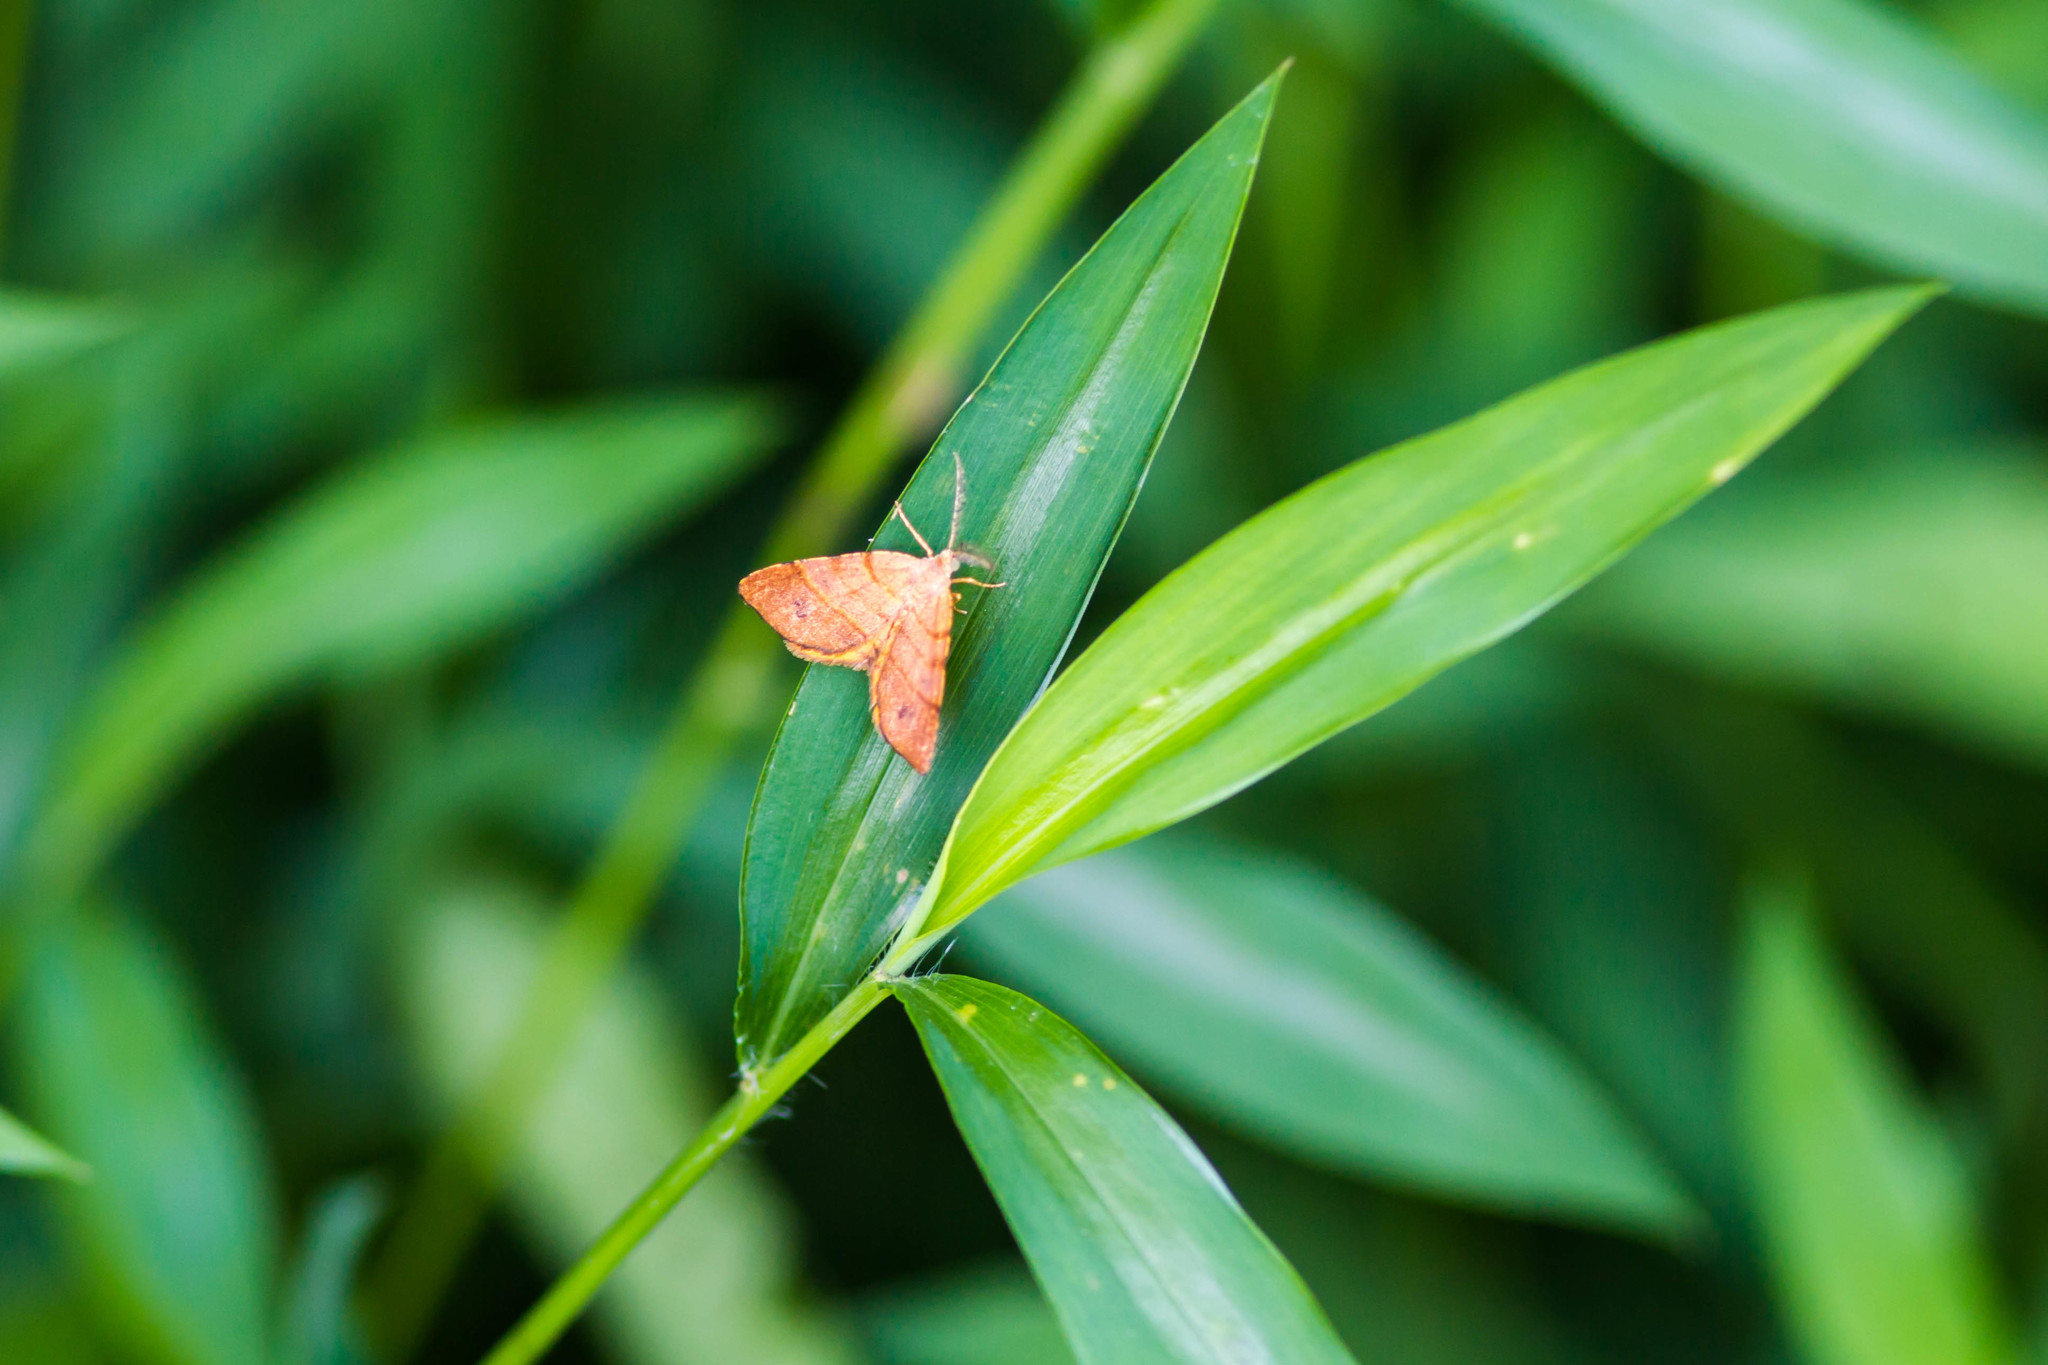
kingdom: Animalia
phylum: Arthropoda
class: Insecta
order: Lepidoptera
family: Geometridae
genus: Mellilla
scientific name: Mellilla xanthometata
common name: Orange wing moth
